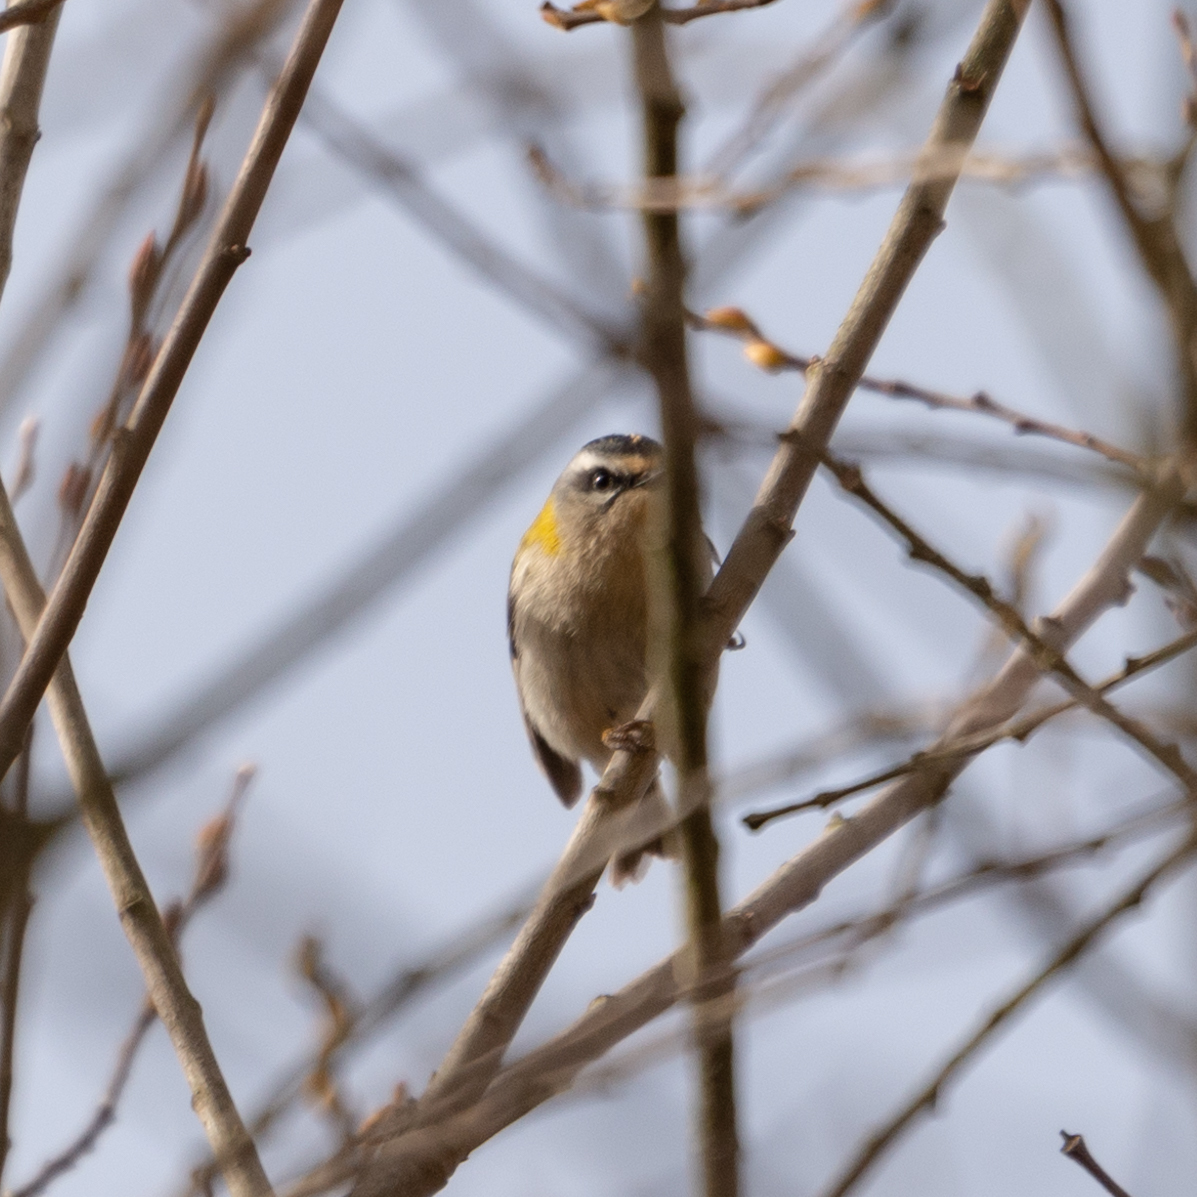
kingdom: Animalia
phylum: Chordata
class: Aves
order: Passeriformes
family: Regulidae
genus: Regulus
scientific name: Regulus ignicapilla
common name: Firecrest
